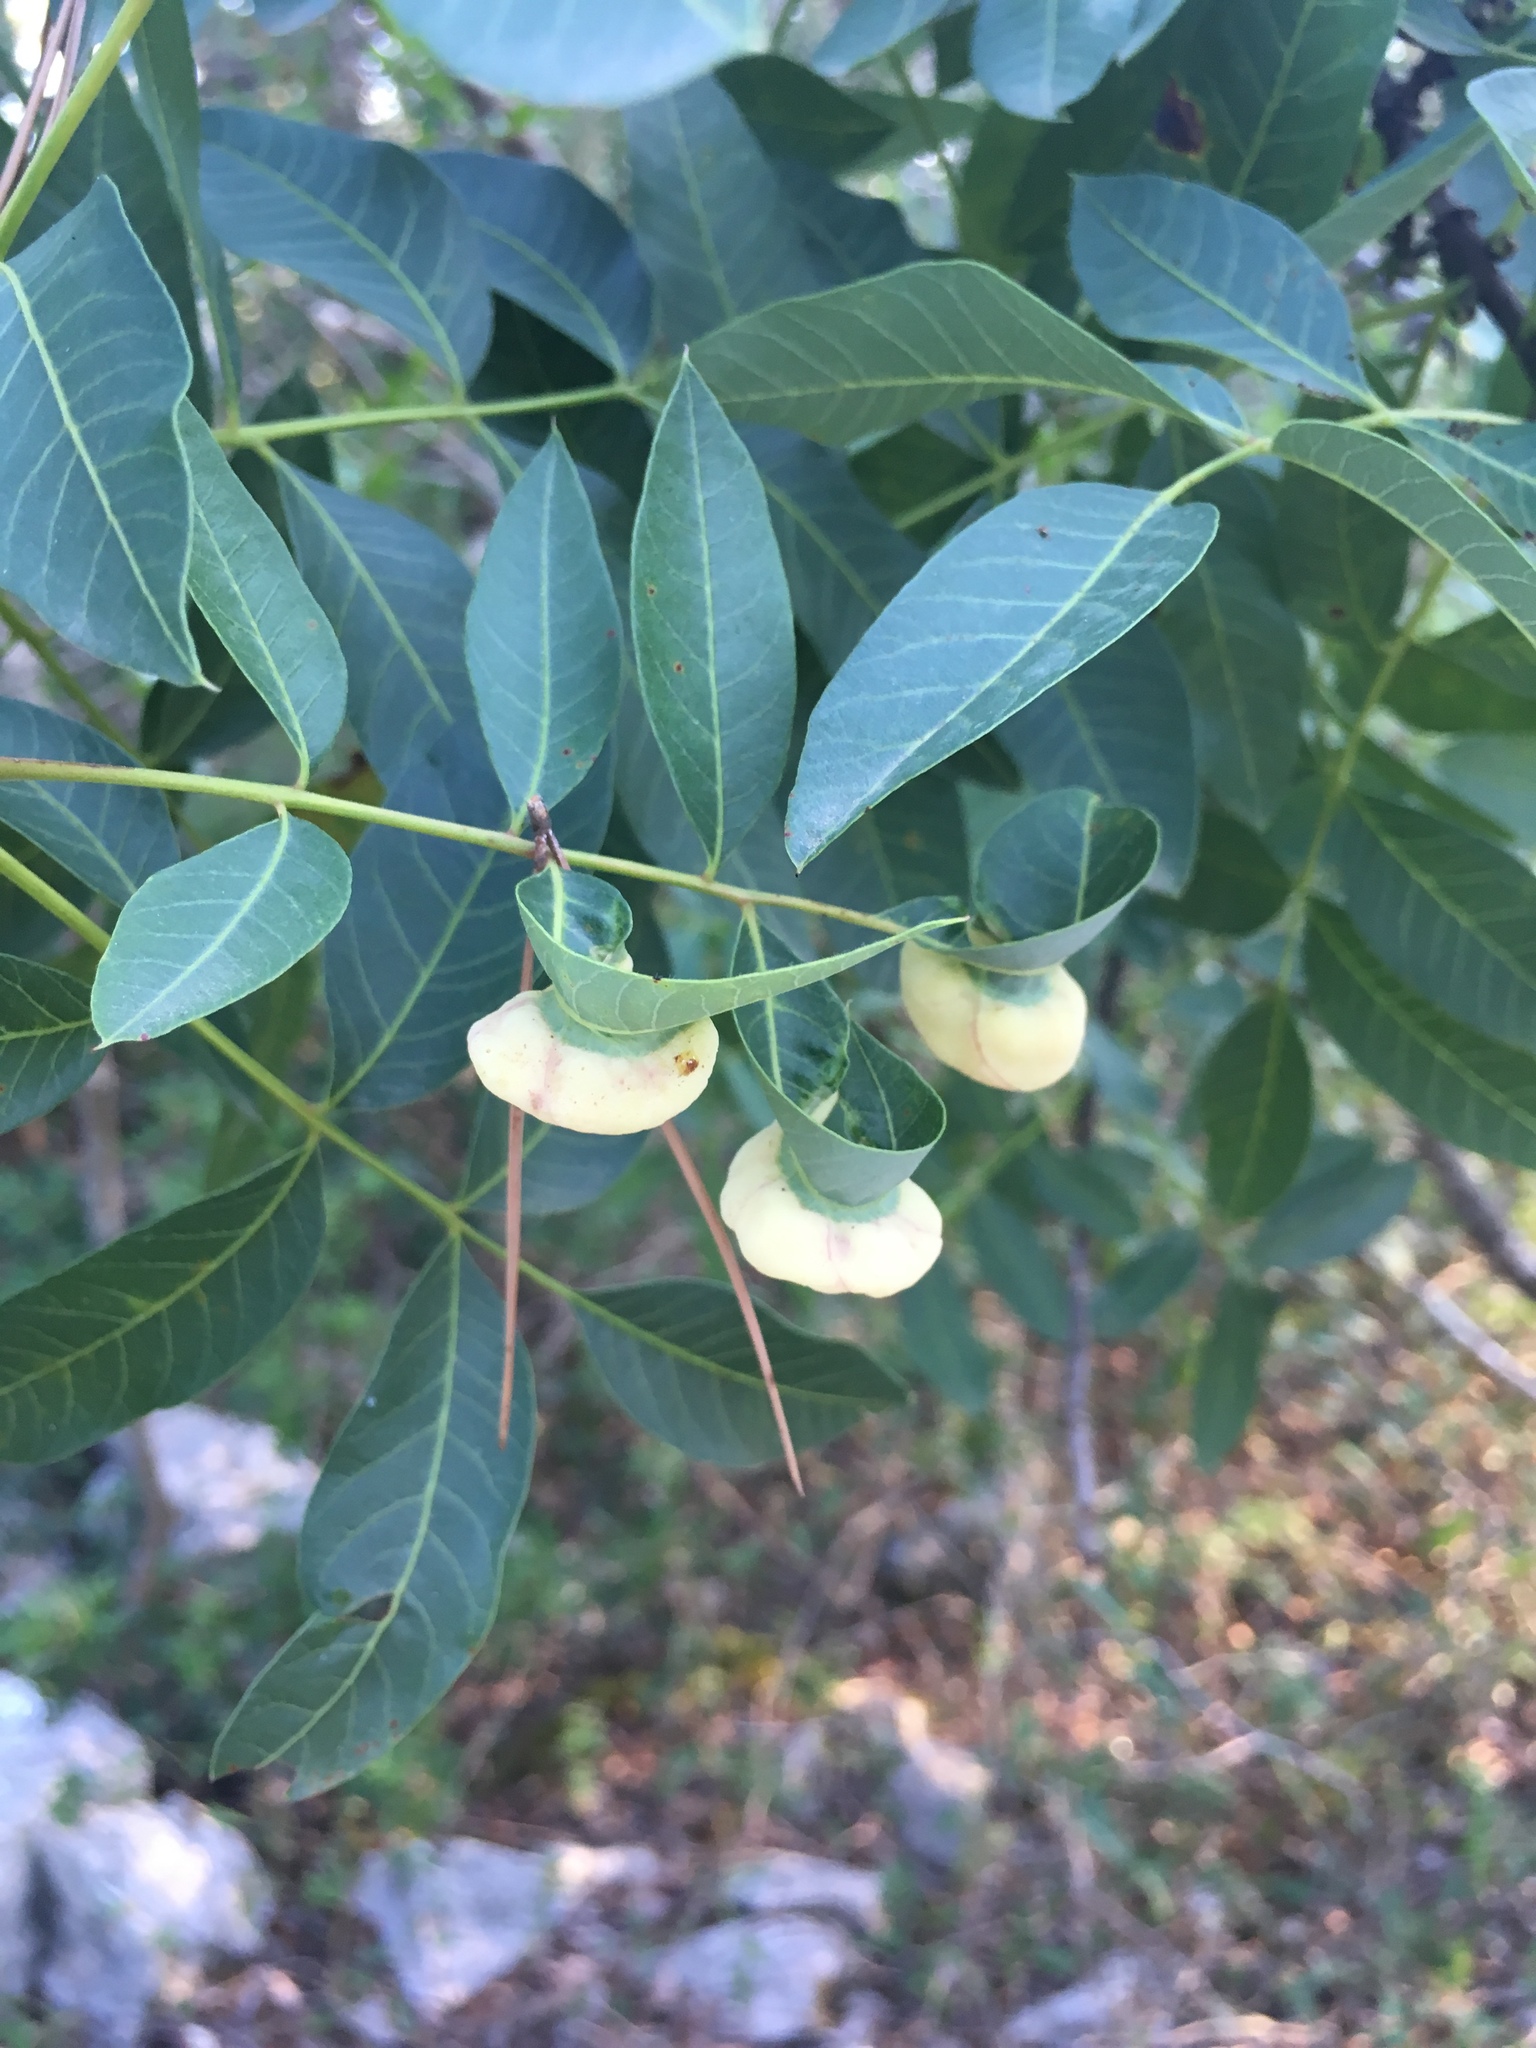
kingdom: Plantae
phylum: Tracheophyta
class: Magnoliopsida
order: Sapindales
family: Anacardiaceae
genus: Pistacia
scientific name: Pistacia terebinthus
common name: Terebinth
